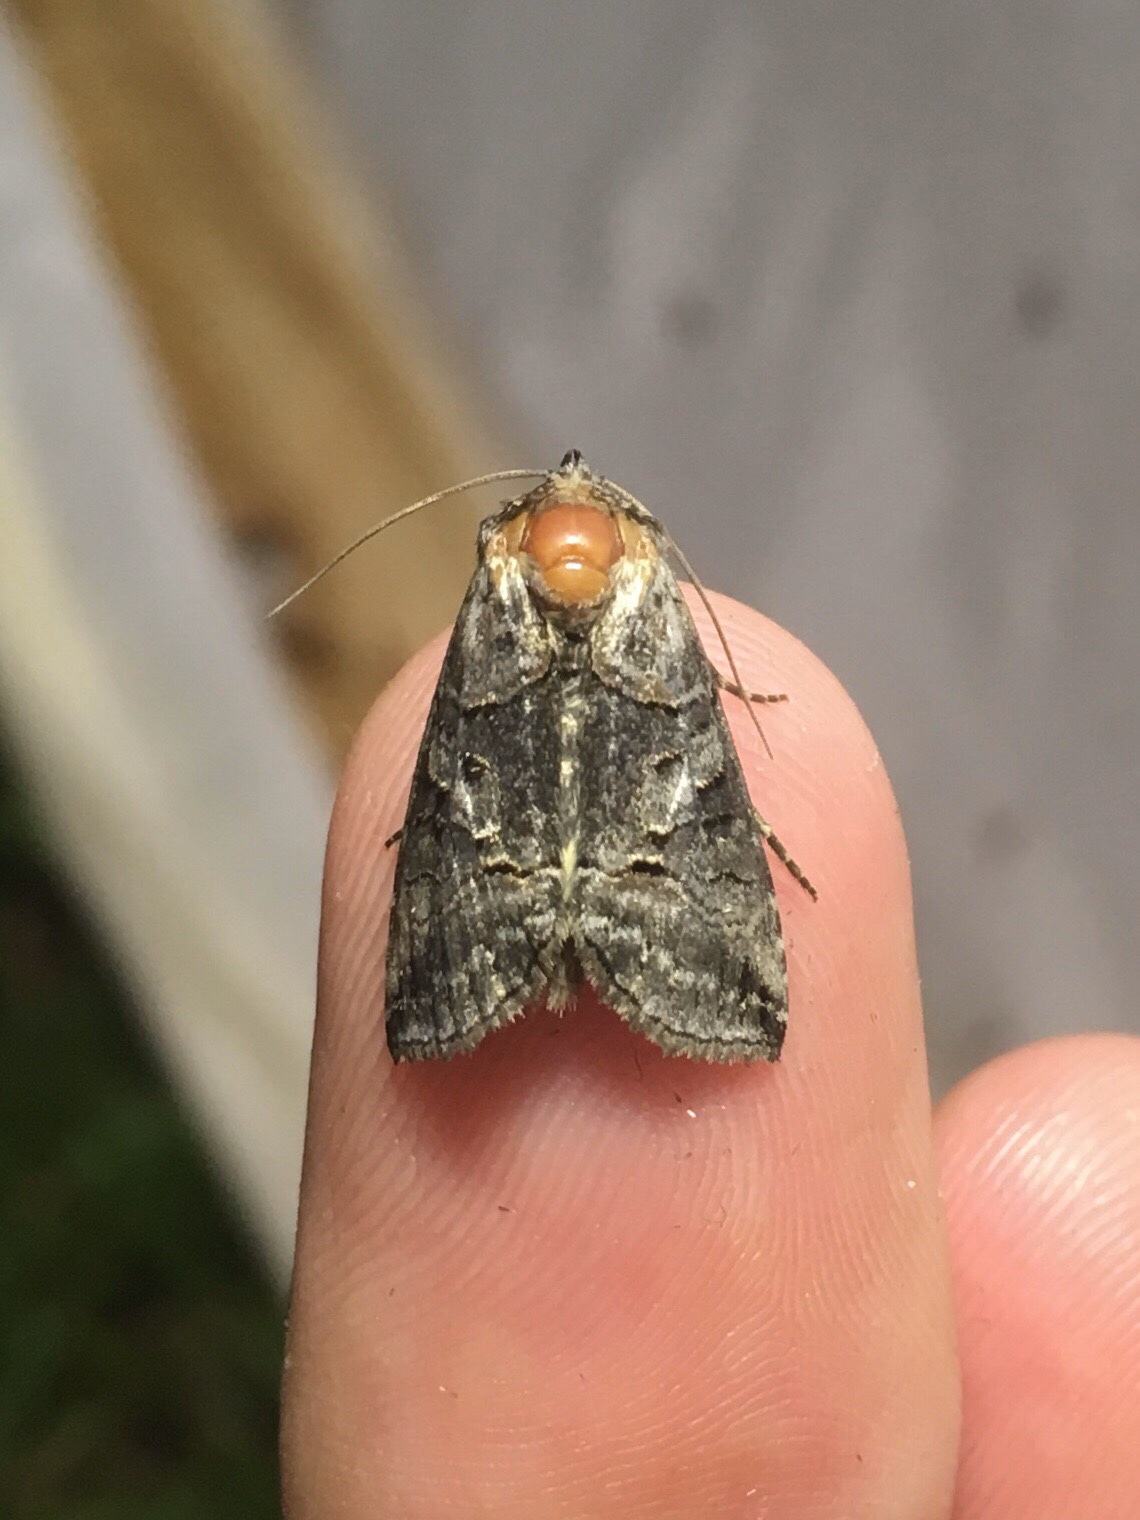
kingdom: Animalia
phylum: Arthropoda
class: Insecta
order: Lepidoptera
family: Noctuidae
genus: Abrostola
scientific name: Abrostola urentis
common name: Spectacled nettle moth
